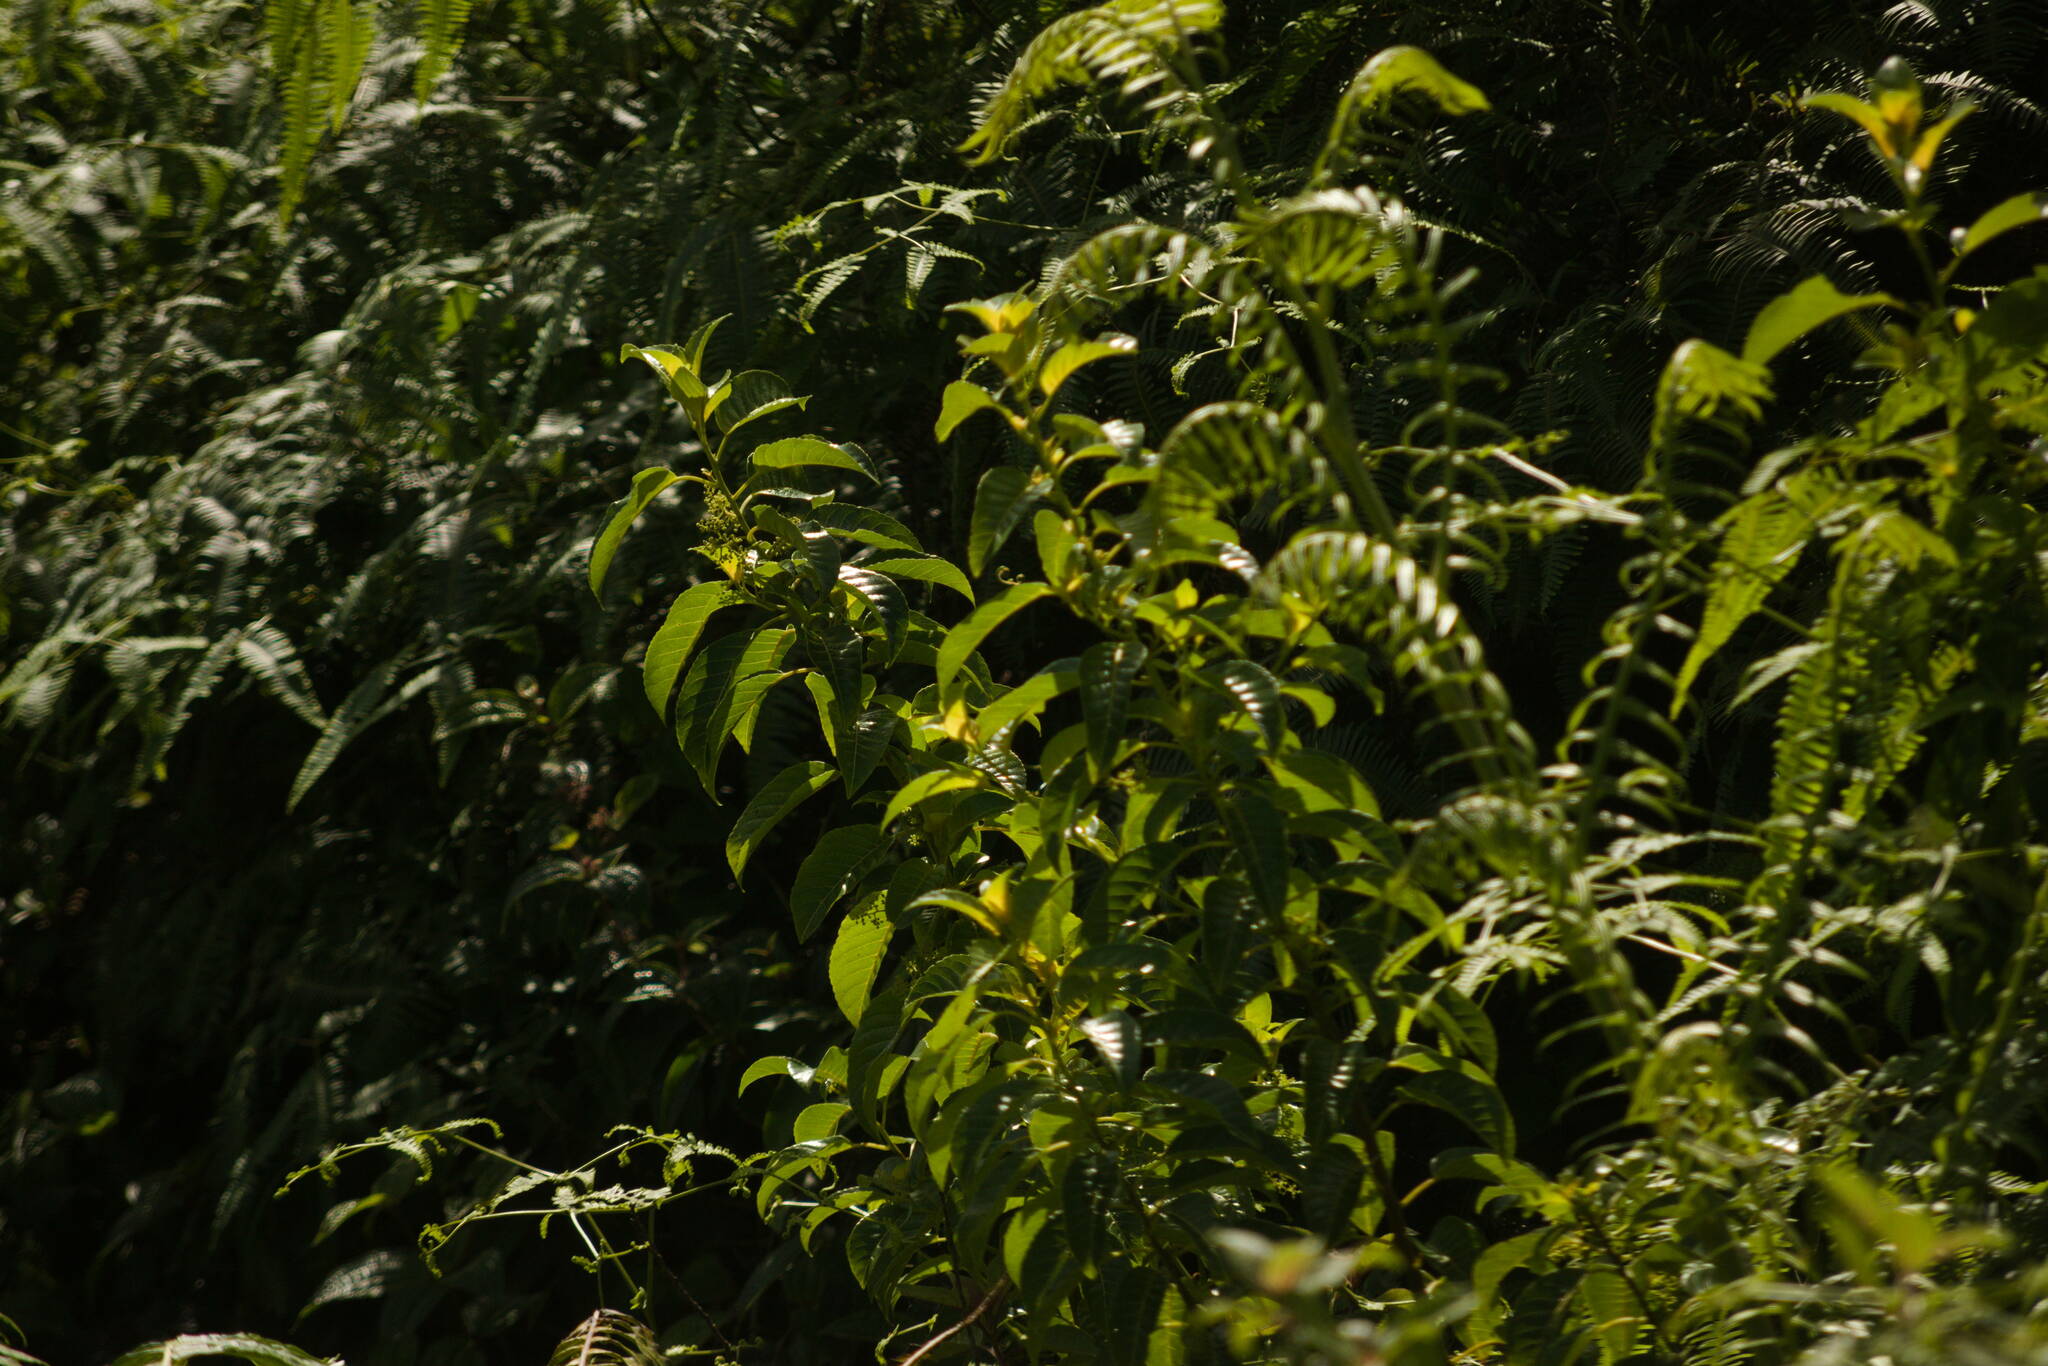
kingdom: Plantae
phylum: Tracheophyta
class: Magnoliopsida
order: Huerteales
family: Dipentodontaceae
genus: Perrottetia
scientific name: Perrottetia sandwicensis
